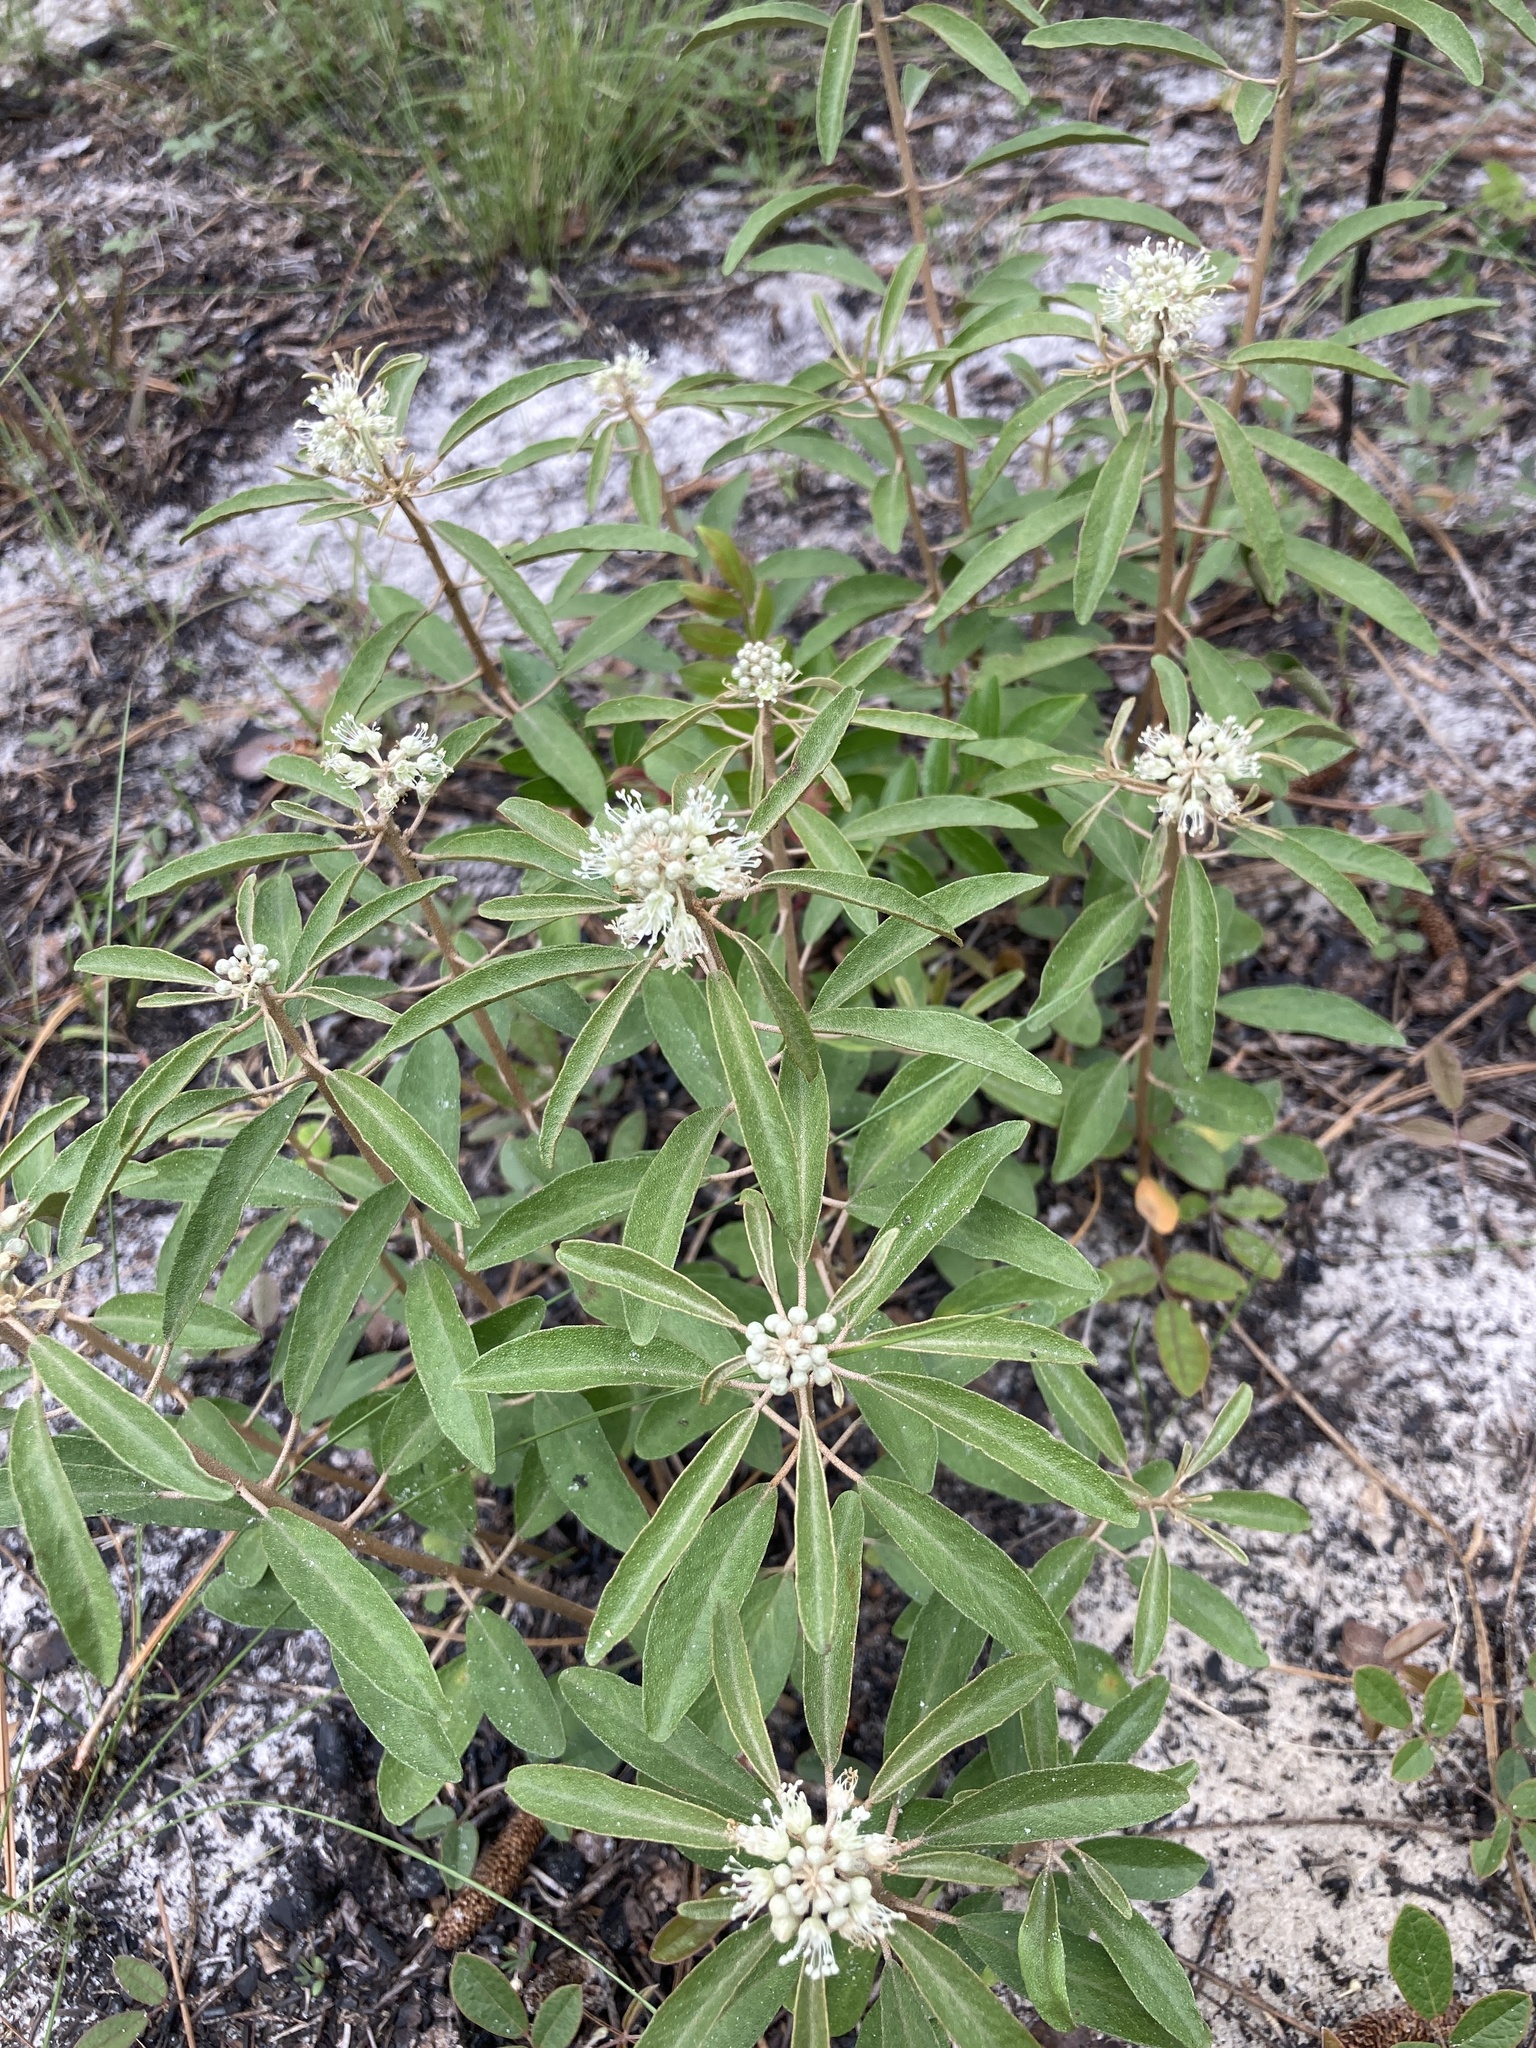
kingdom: Plantae
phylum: Tracheophyta
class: Magnoliopsida
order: Malpighiales
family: Euphorbiaceae
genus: Croton
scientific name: Croton argyranthemus
